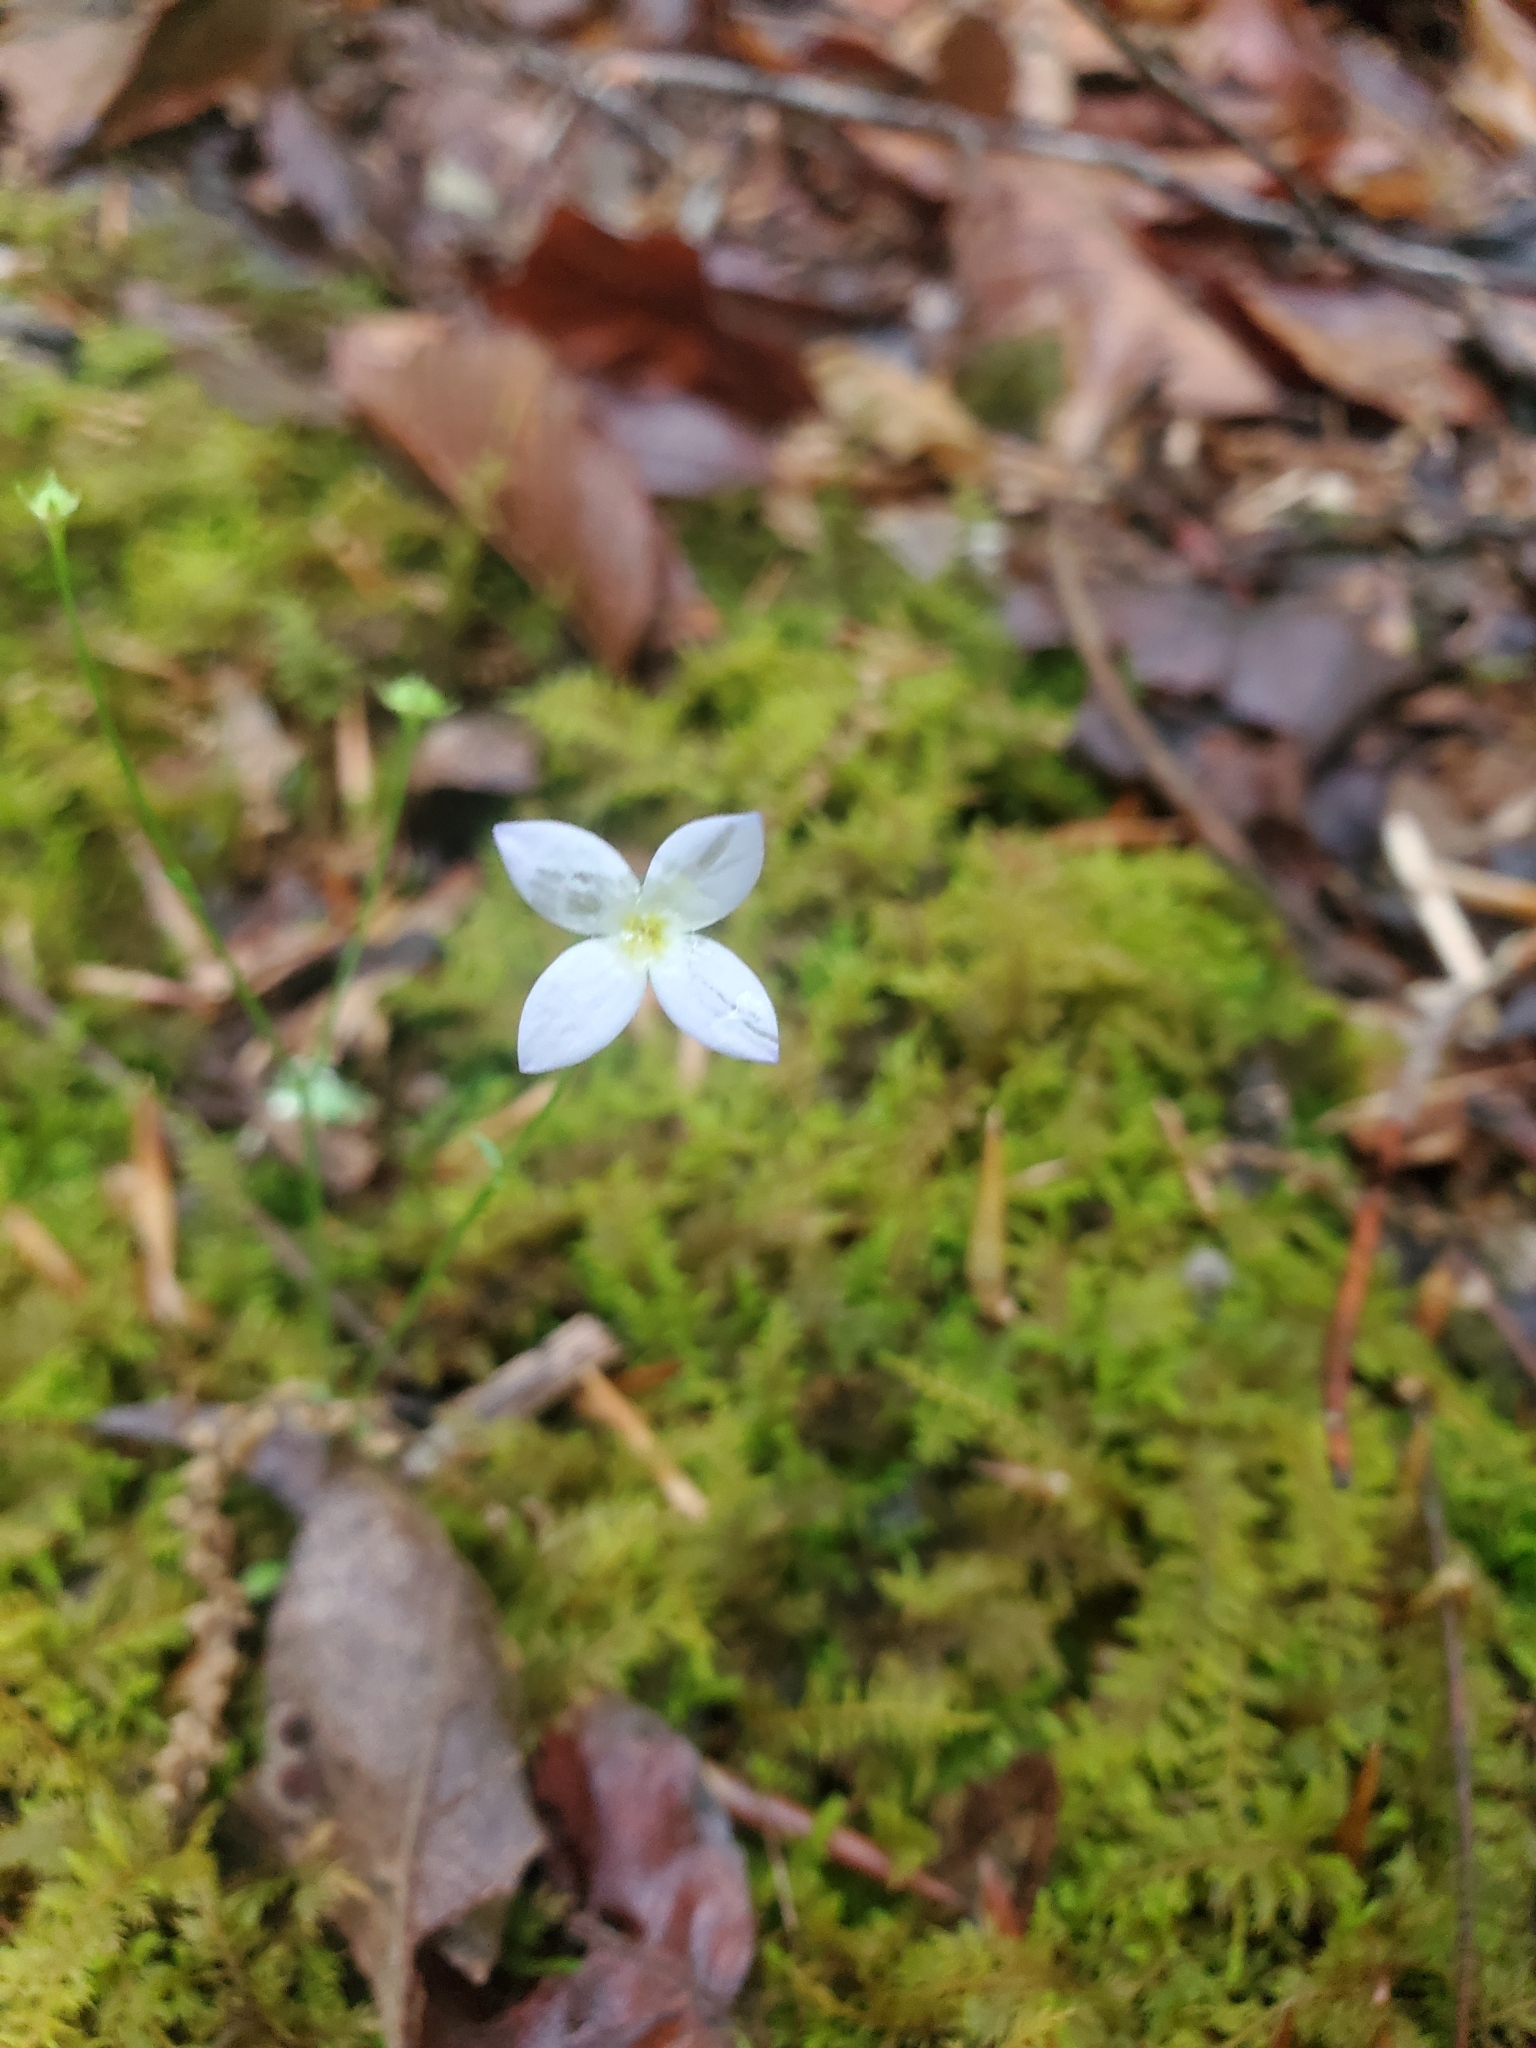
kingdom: Plantae
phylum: Tracheophyta
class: Magnoliopsida
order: Gentianales
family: Rubiaceae
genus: Houstonia
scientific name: Houstonia caerulea
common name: Bluets
